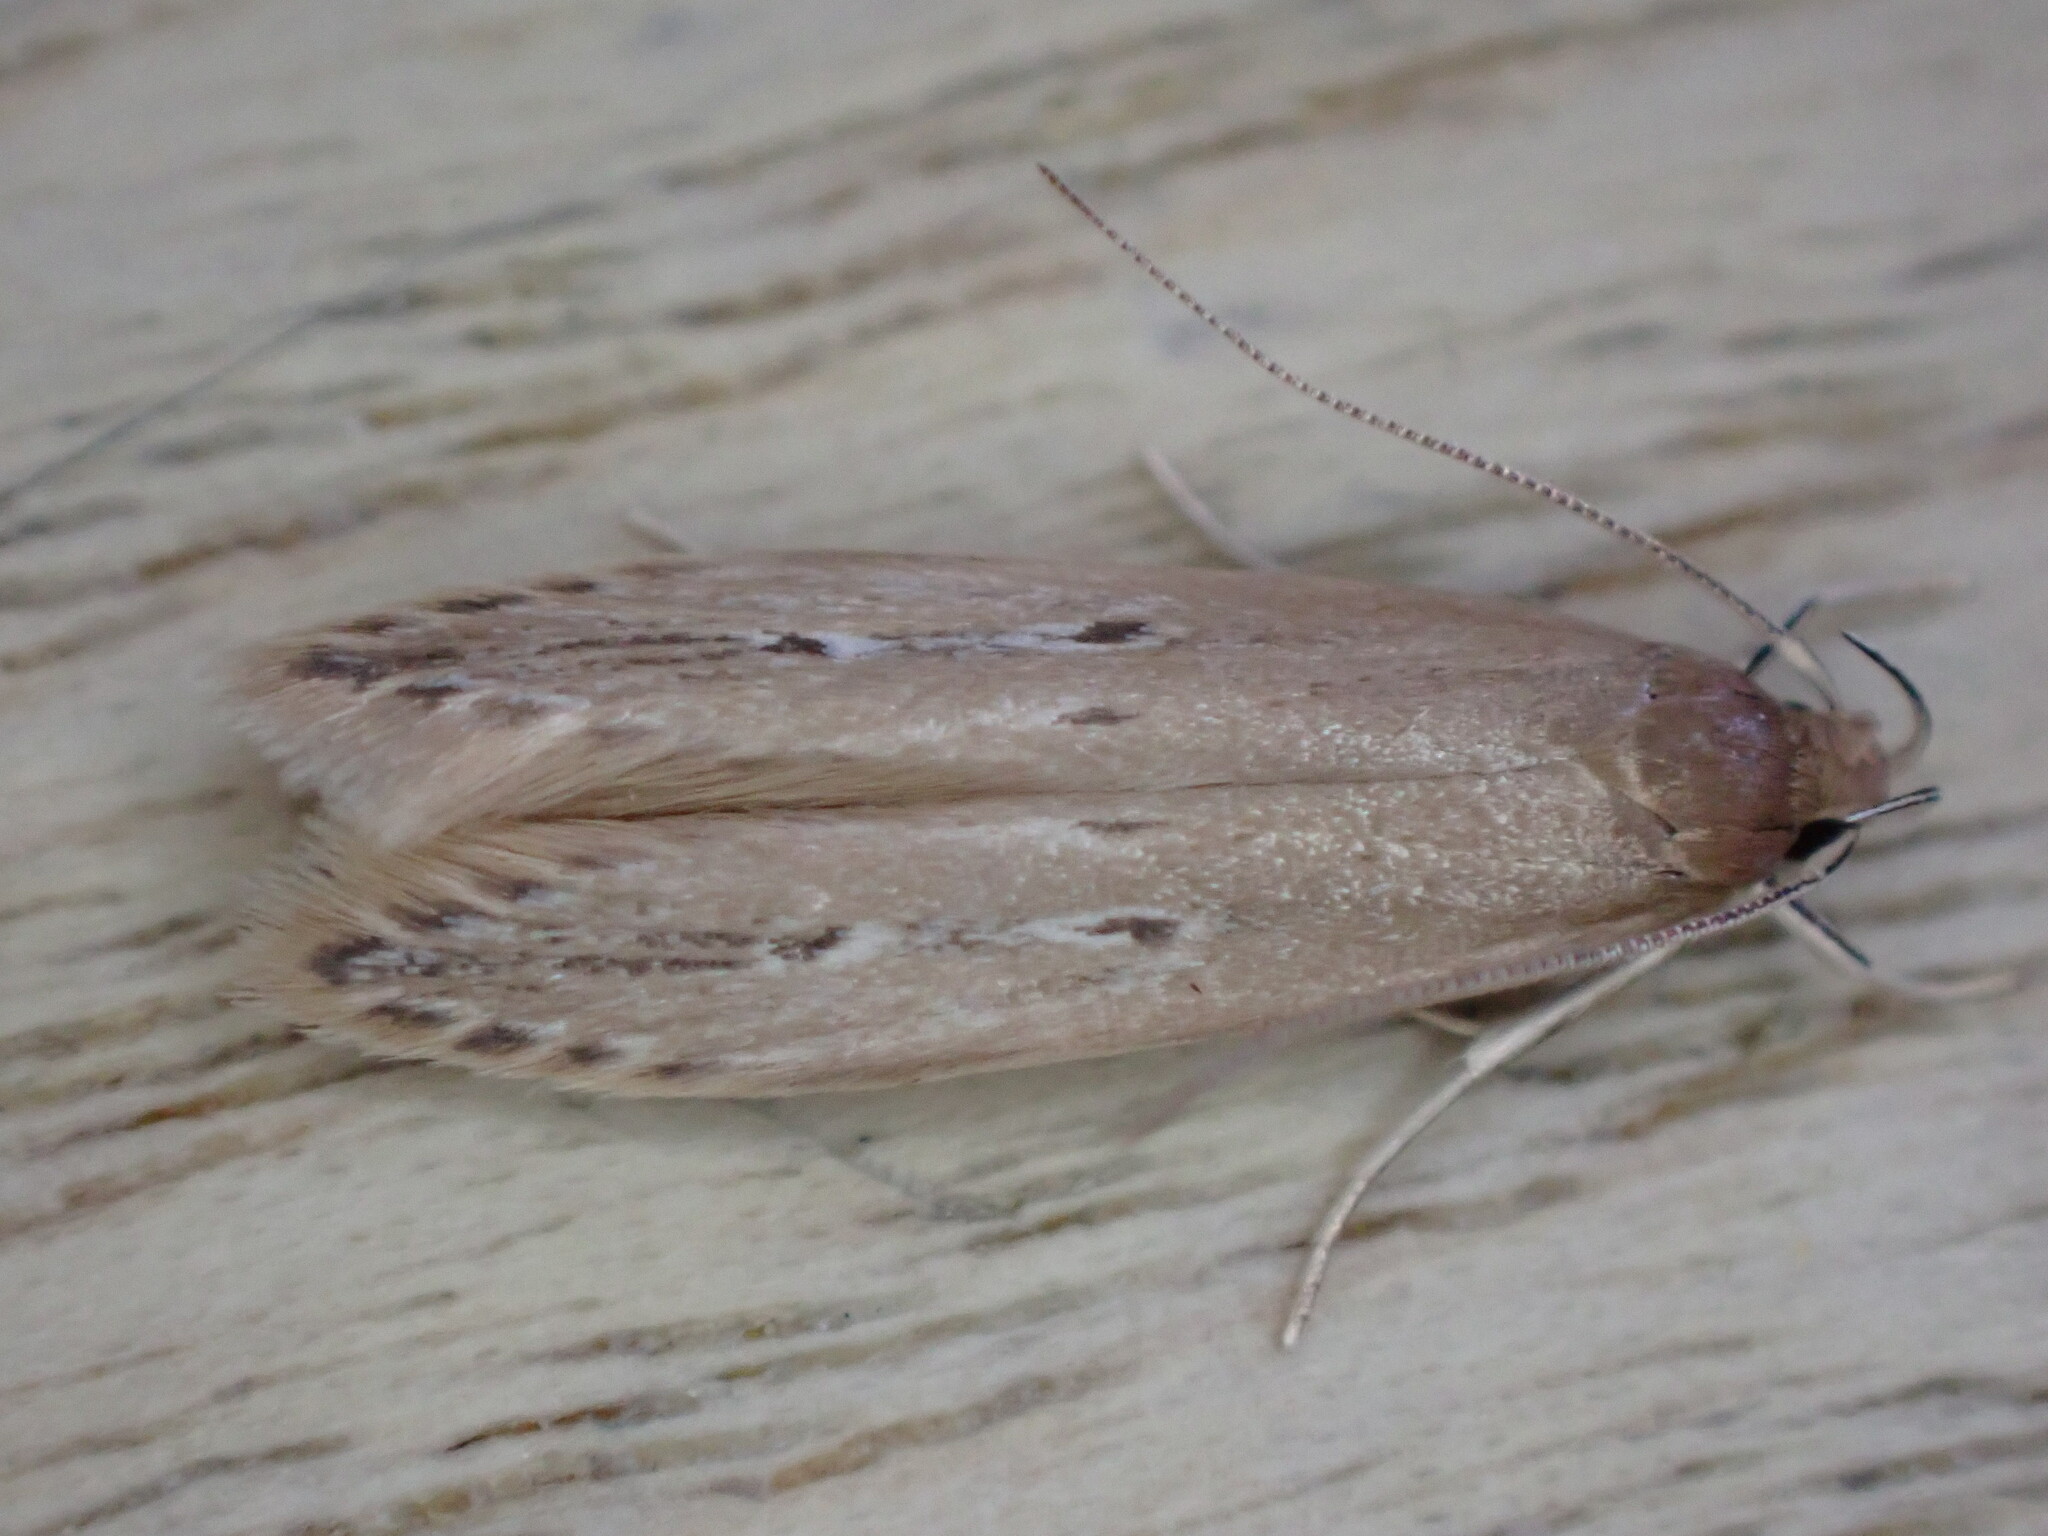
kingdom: Animalia
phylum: Arthropoda
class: Insecta
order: Lepidoptera
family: Cosmopterigidae
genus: Limnaecia
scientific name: Limnaecia phragmitella
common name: Bulrush cosmet
